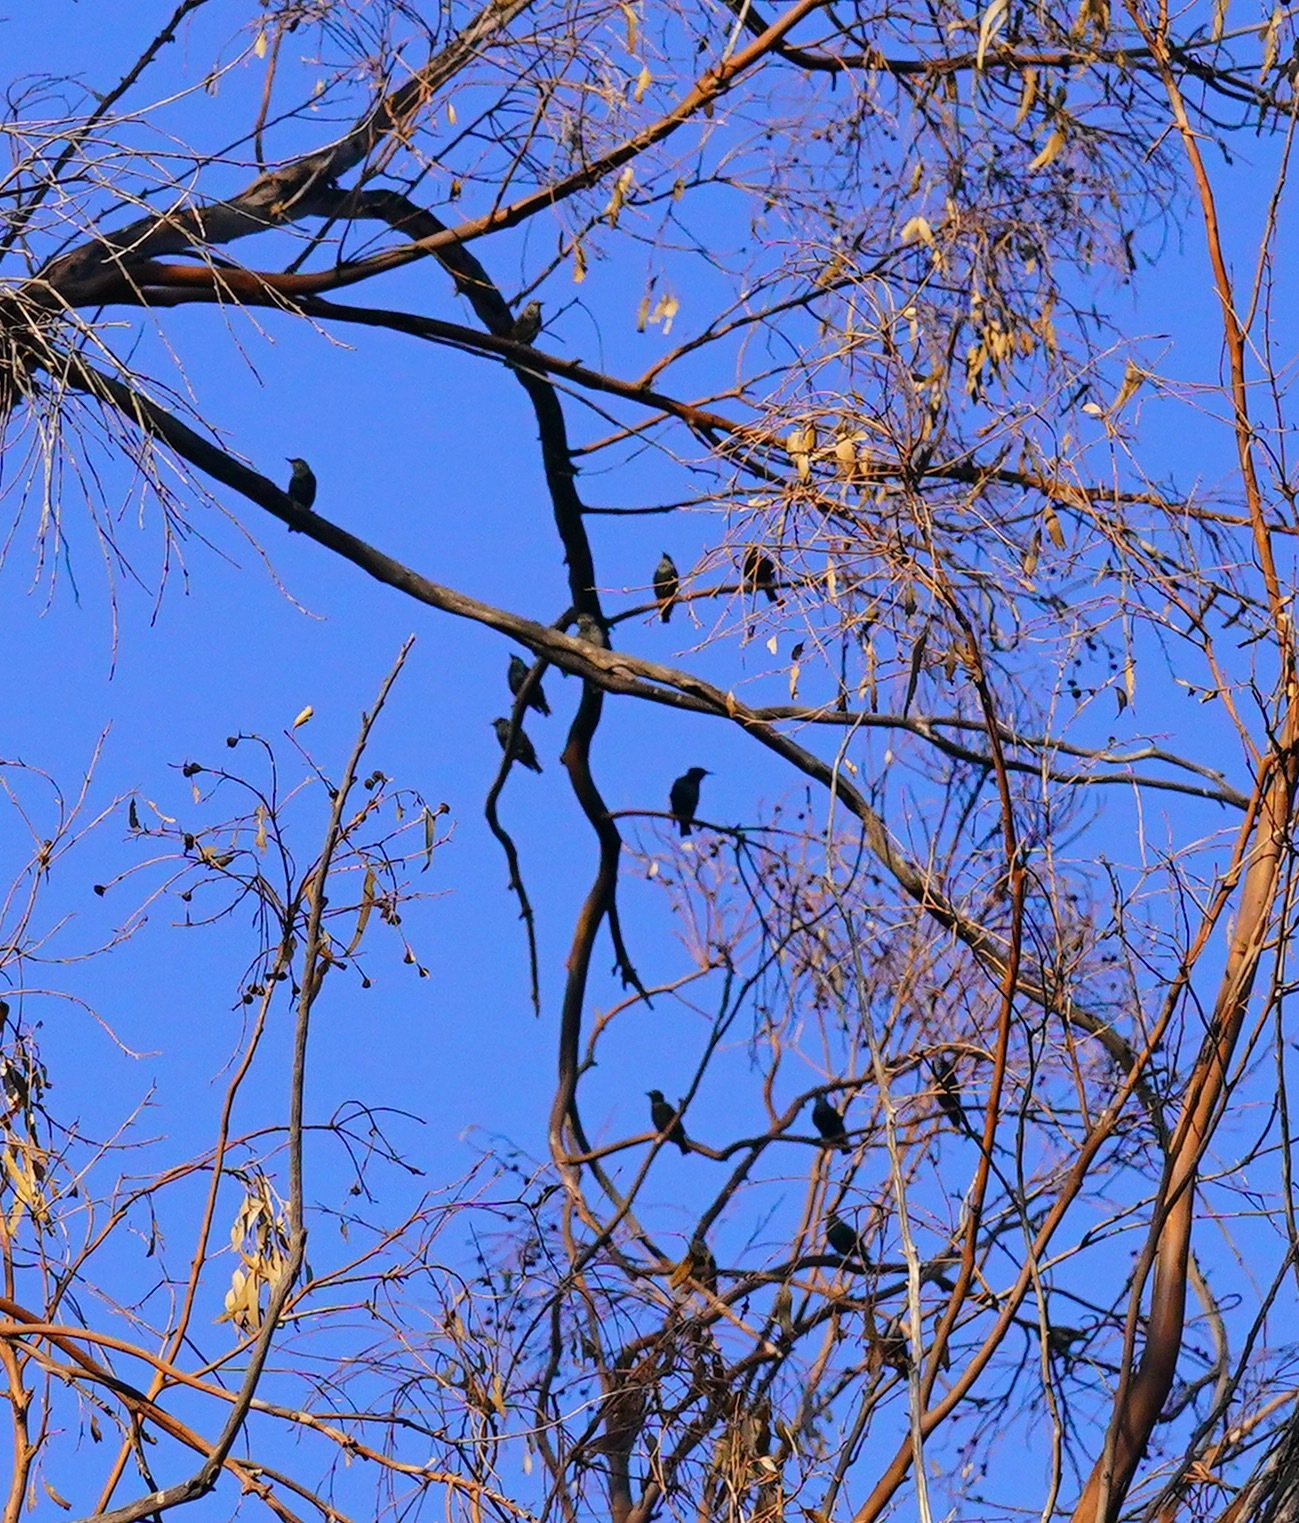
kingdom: Animalia
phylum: Chordata
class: Aves
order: Passeriformes
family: Sturnidae
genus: Sturnus
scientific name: Sturnus vulgaris
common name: Common starling
